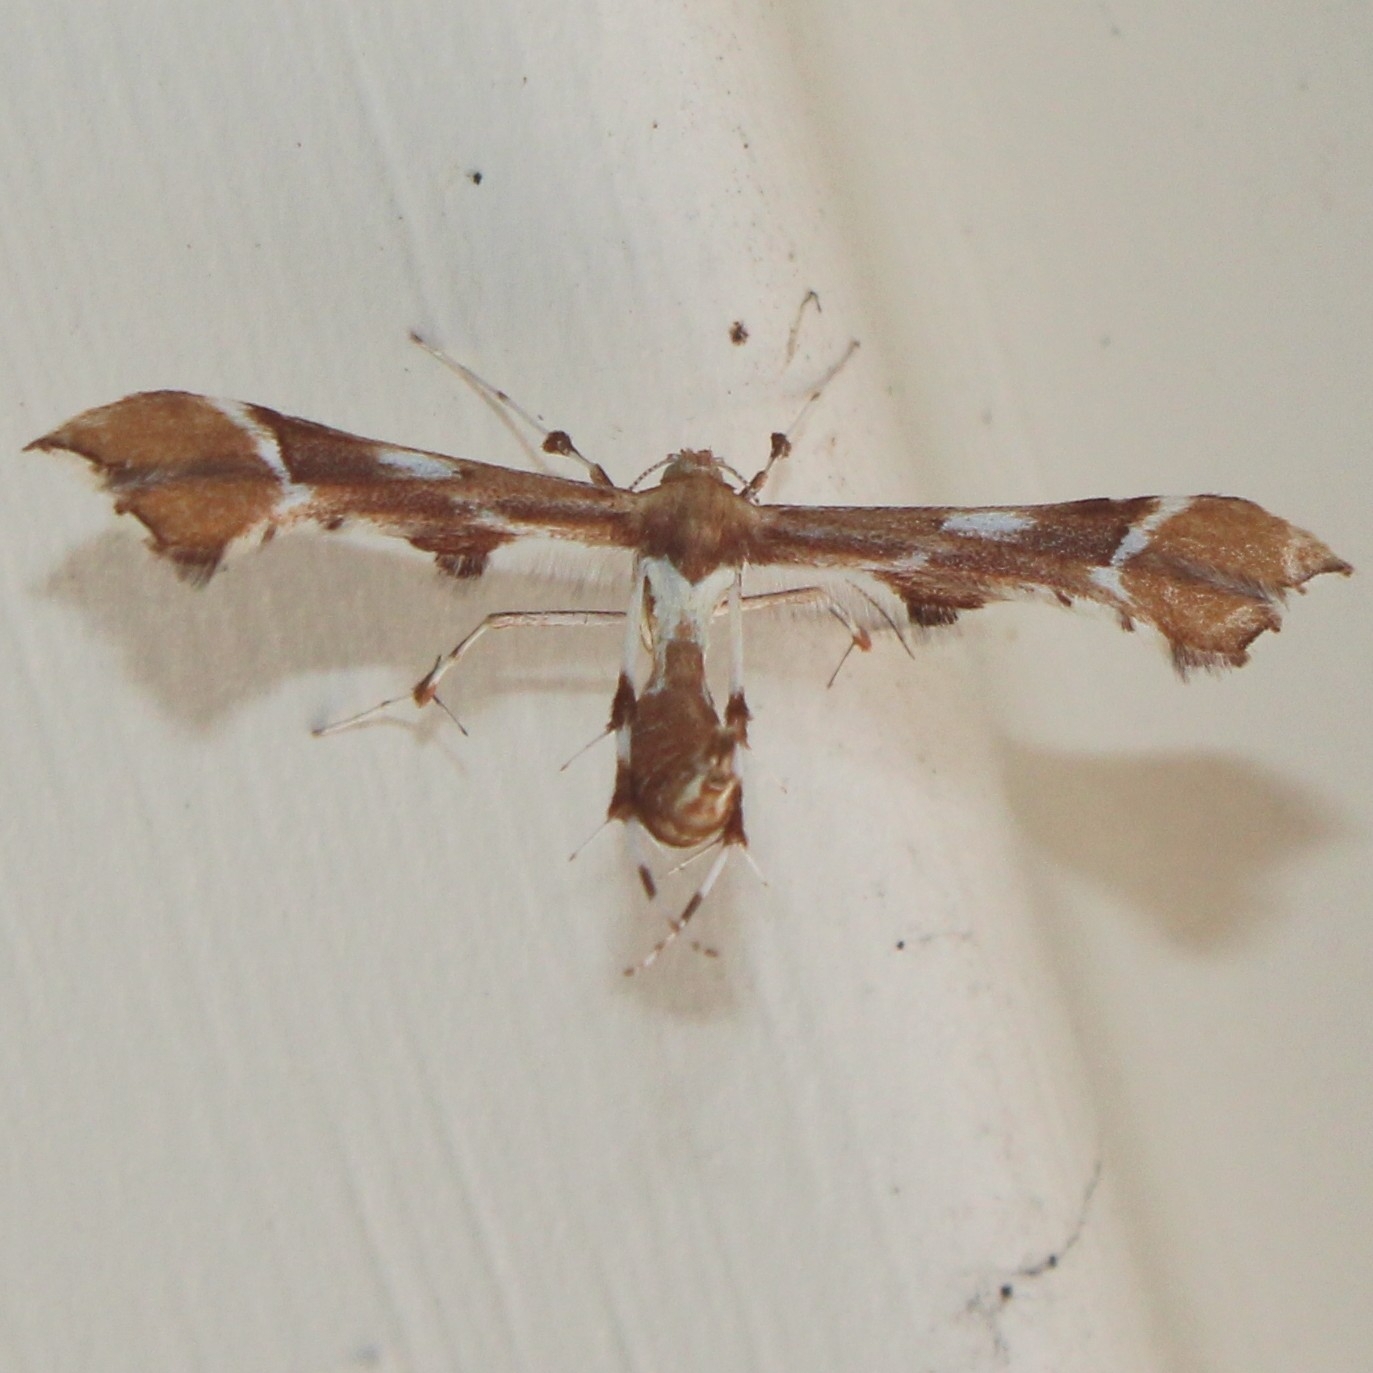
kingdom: Animalia
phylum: Arthropoda
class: Insecta
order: Lepidoptera
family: Pterophoridae
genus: Cnaemidophorus
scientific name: Cnaemidophorus rhododactyla
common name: Rose plume
